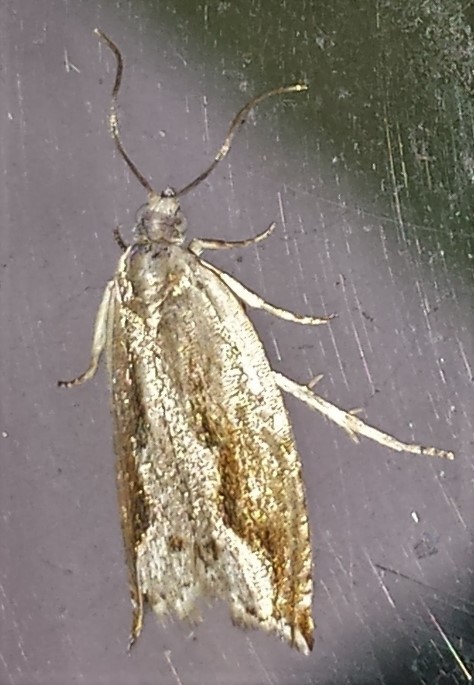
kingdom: Animalia
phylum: Arthropoda
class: Insecta
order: Lepidoptera
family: Tortricidae
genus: Ancylis
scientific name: Ancylis diminuatana
